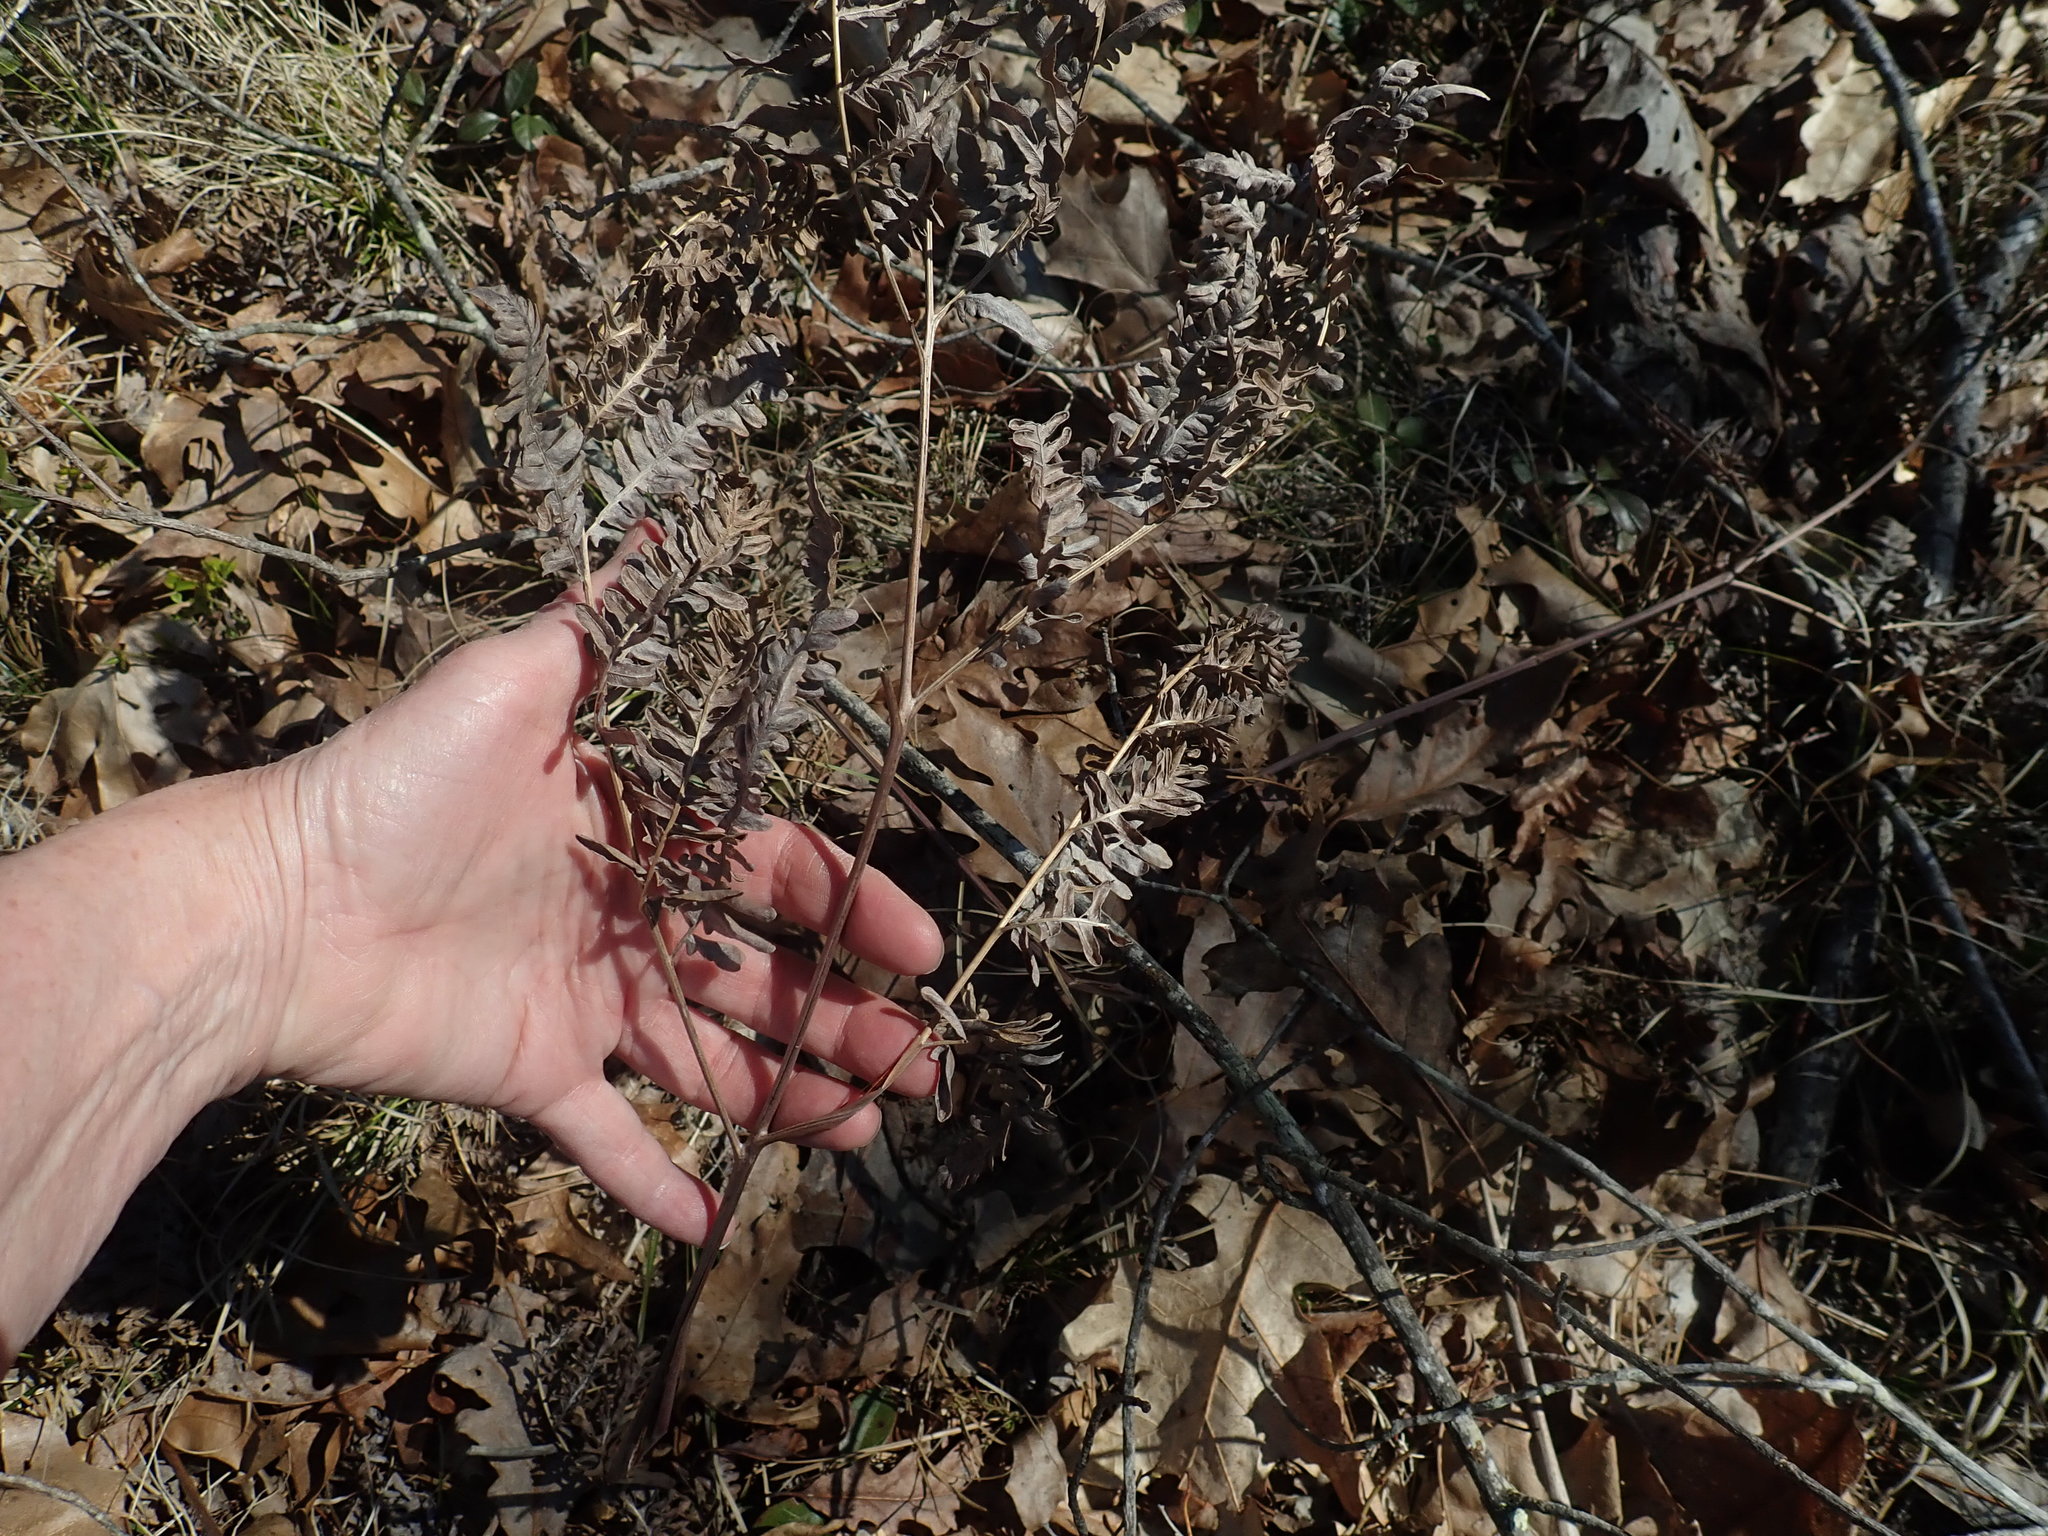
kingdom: Plantae
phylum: Tracheophyta
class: Polypodiopsida
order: Polypodiales
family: Dennstaedtiaceae
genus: Pteridium
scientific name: Pteridium aquilinum
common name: Bracken
